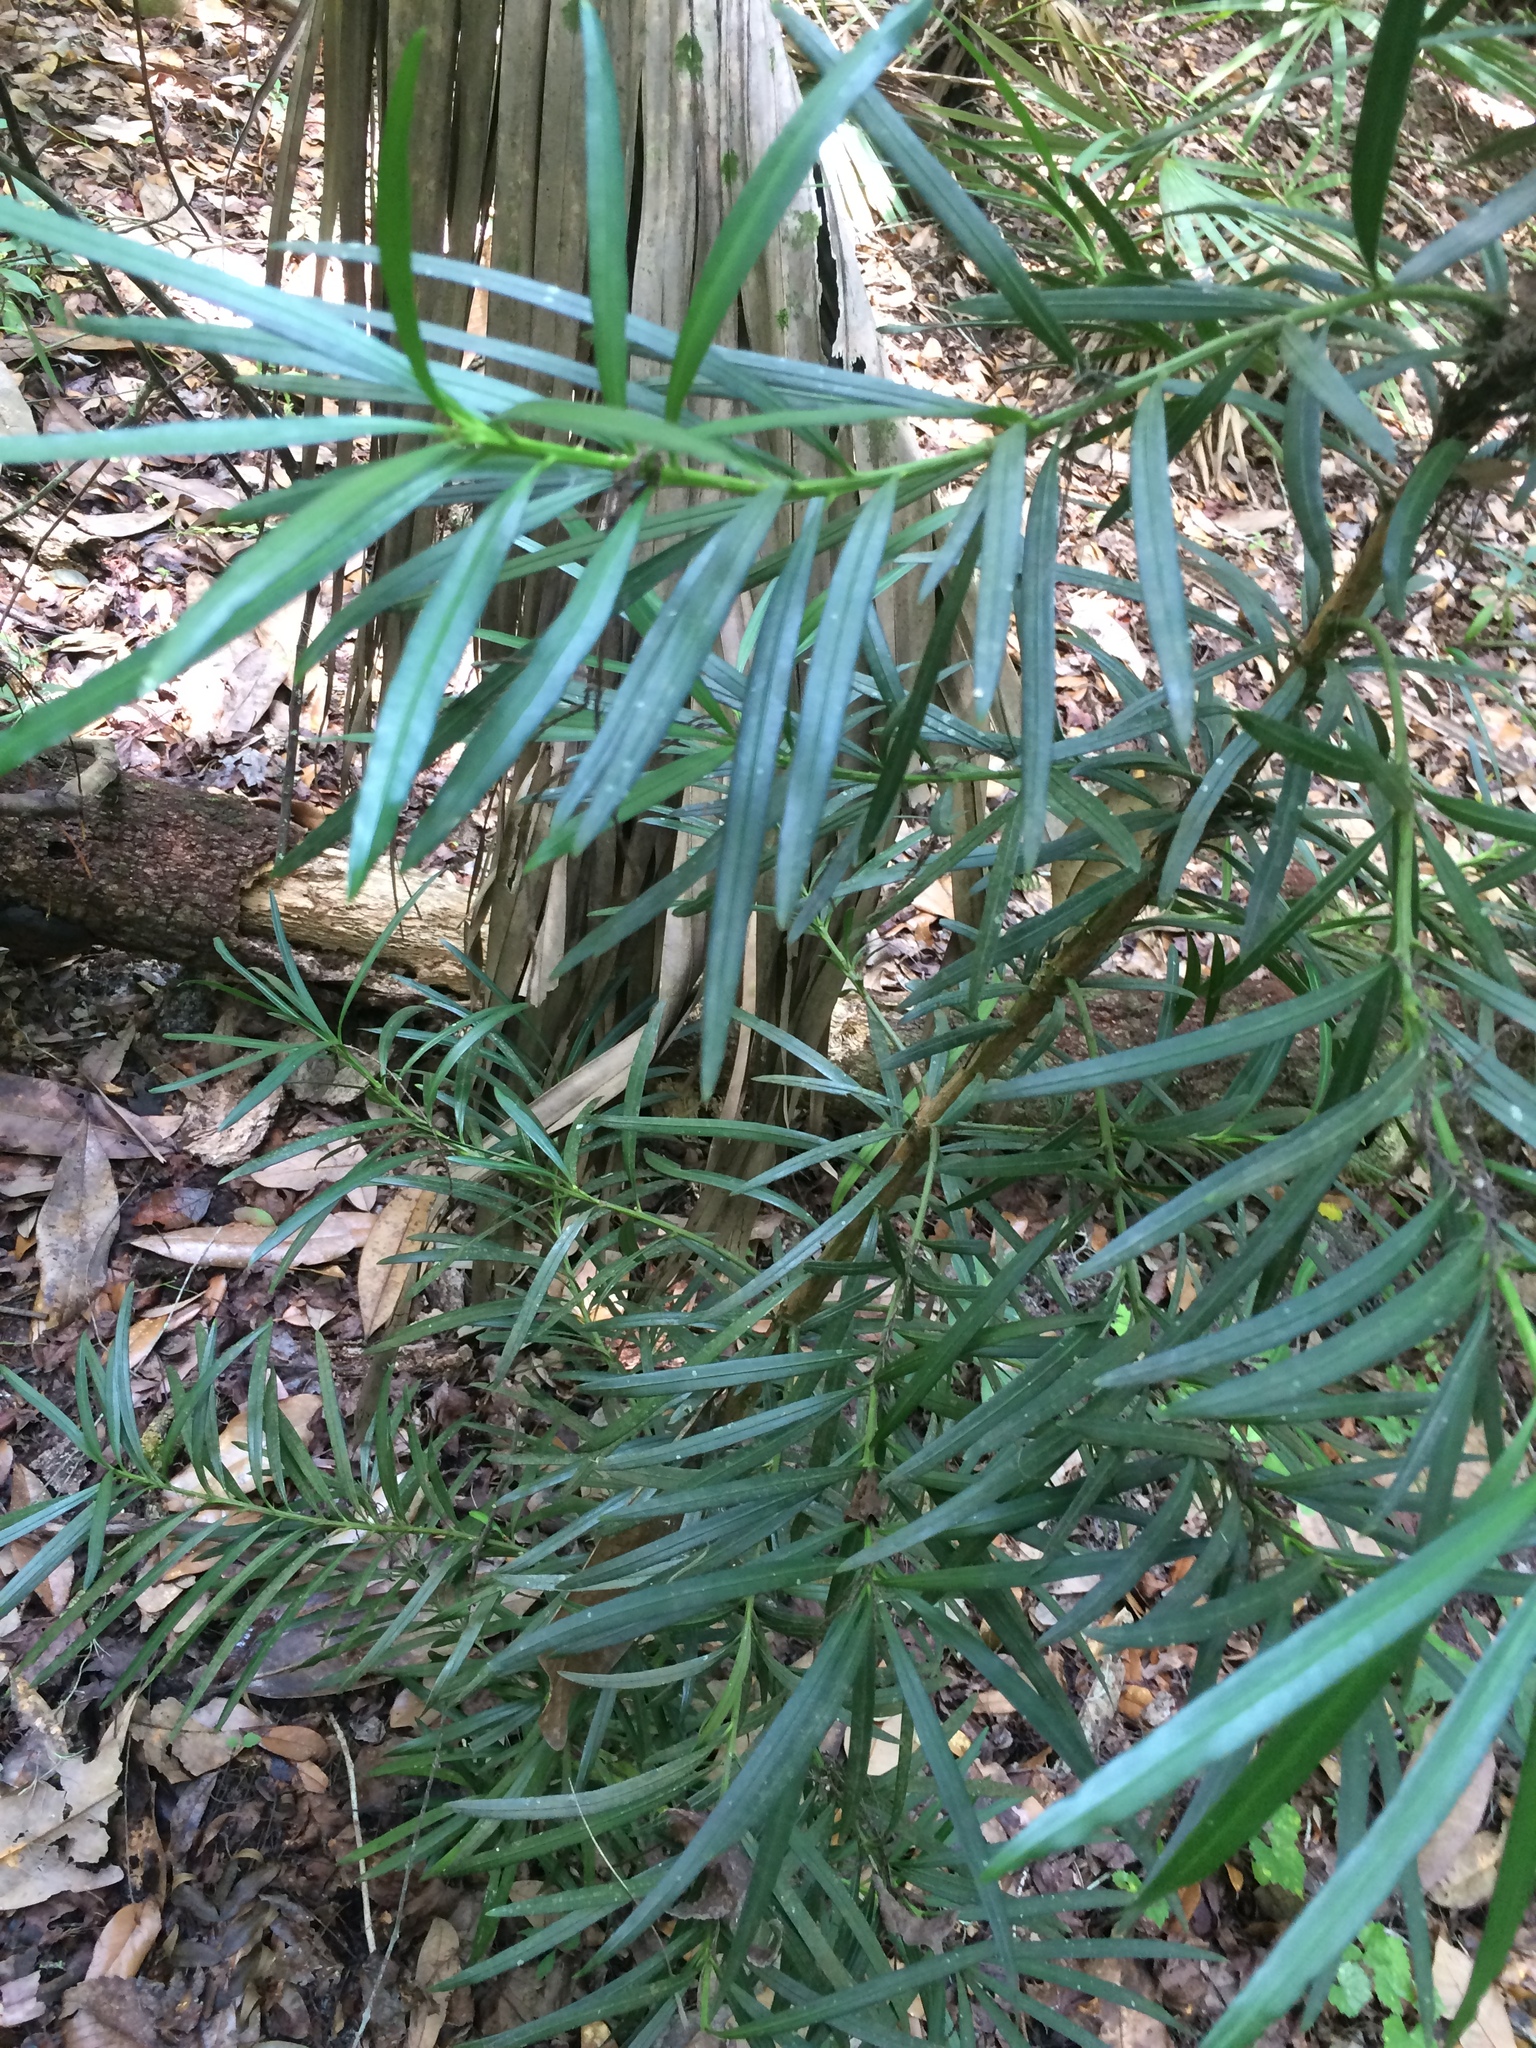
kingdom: Plantae
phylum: Tracheophyta
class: Pinopsida
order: Pinales
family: Podocarpaceae
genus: Podocarpus
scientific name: Podocarpus macrophyllus
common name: Japanese yew
